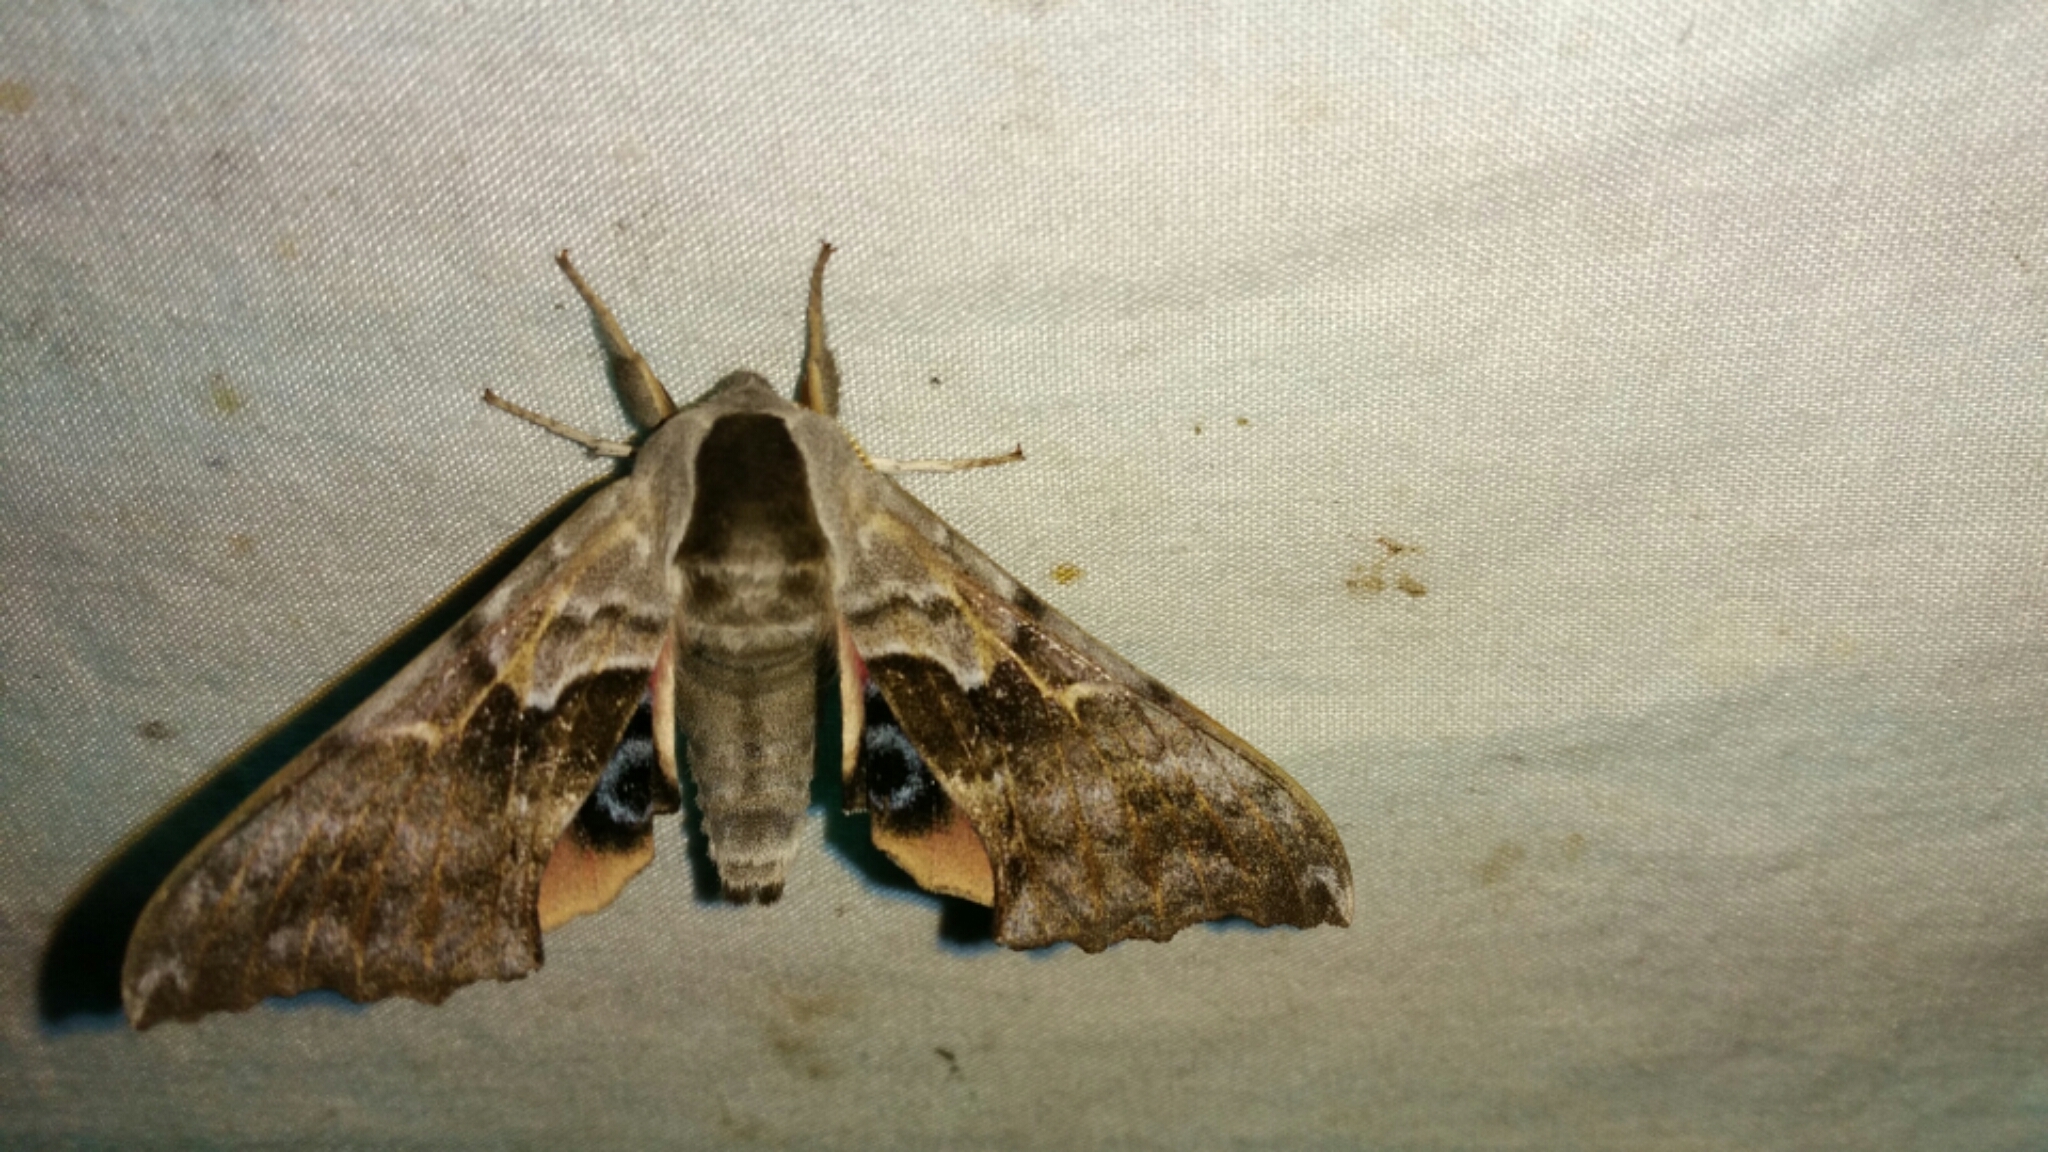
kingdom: Animalia
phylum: Arthropoda
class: Insecta
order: Lepidoptera
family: Sphingidae
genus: Smerinthus
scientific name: Smerinthus cerisyi
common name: Cerisy's sphinx moth
